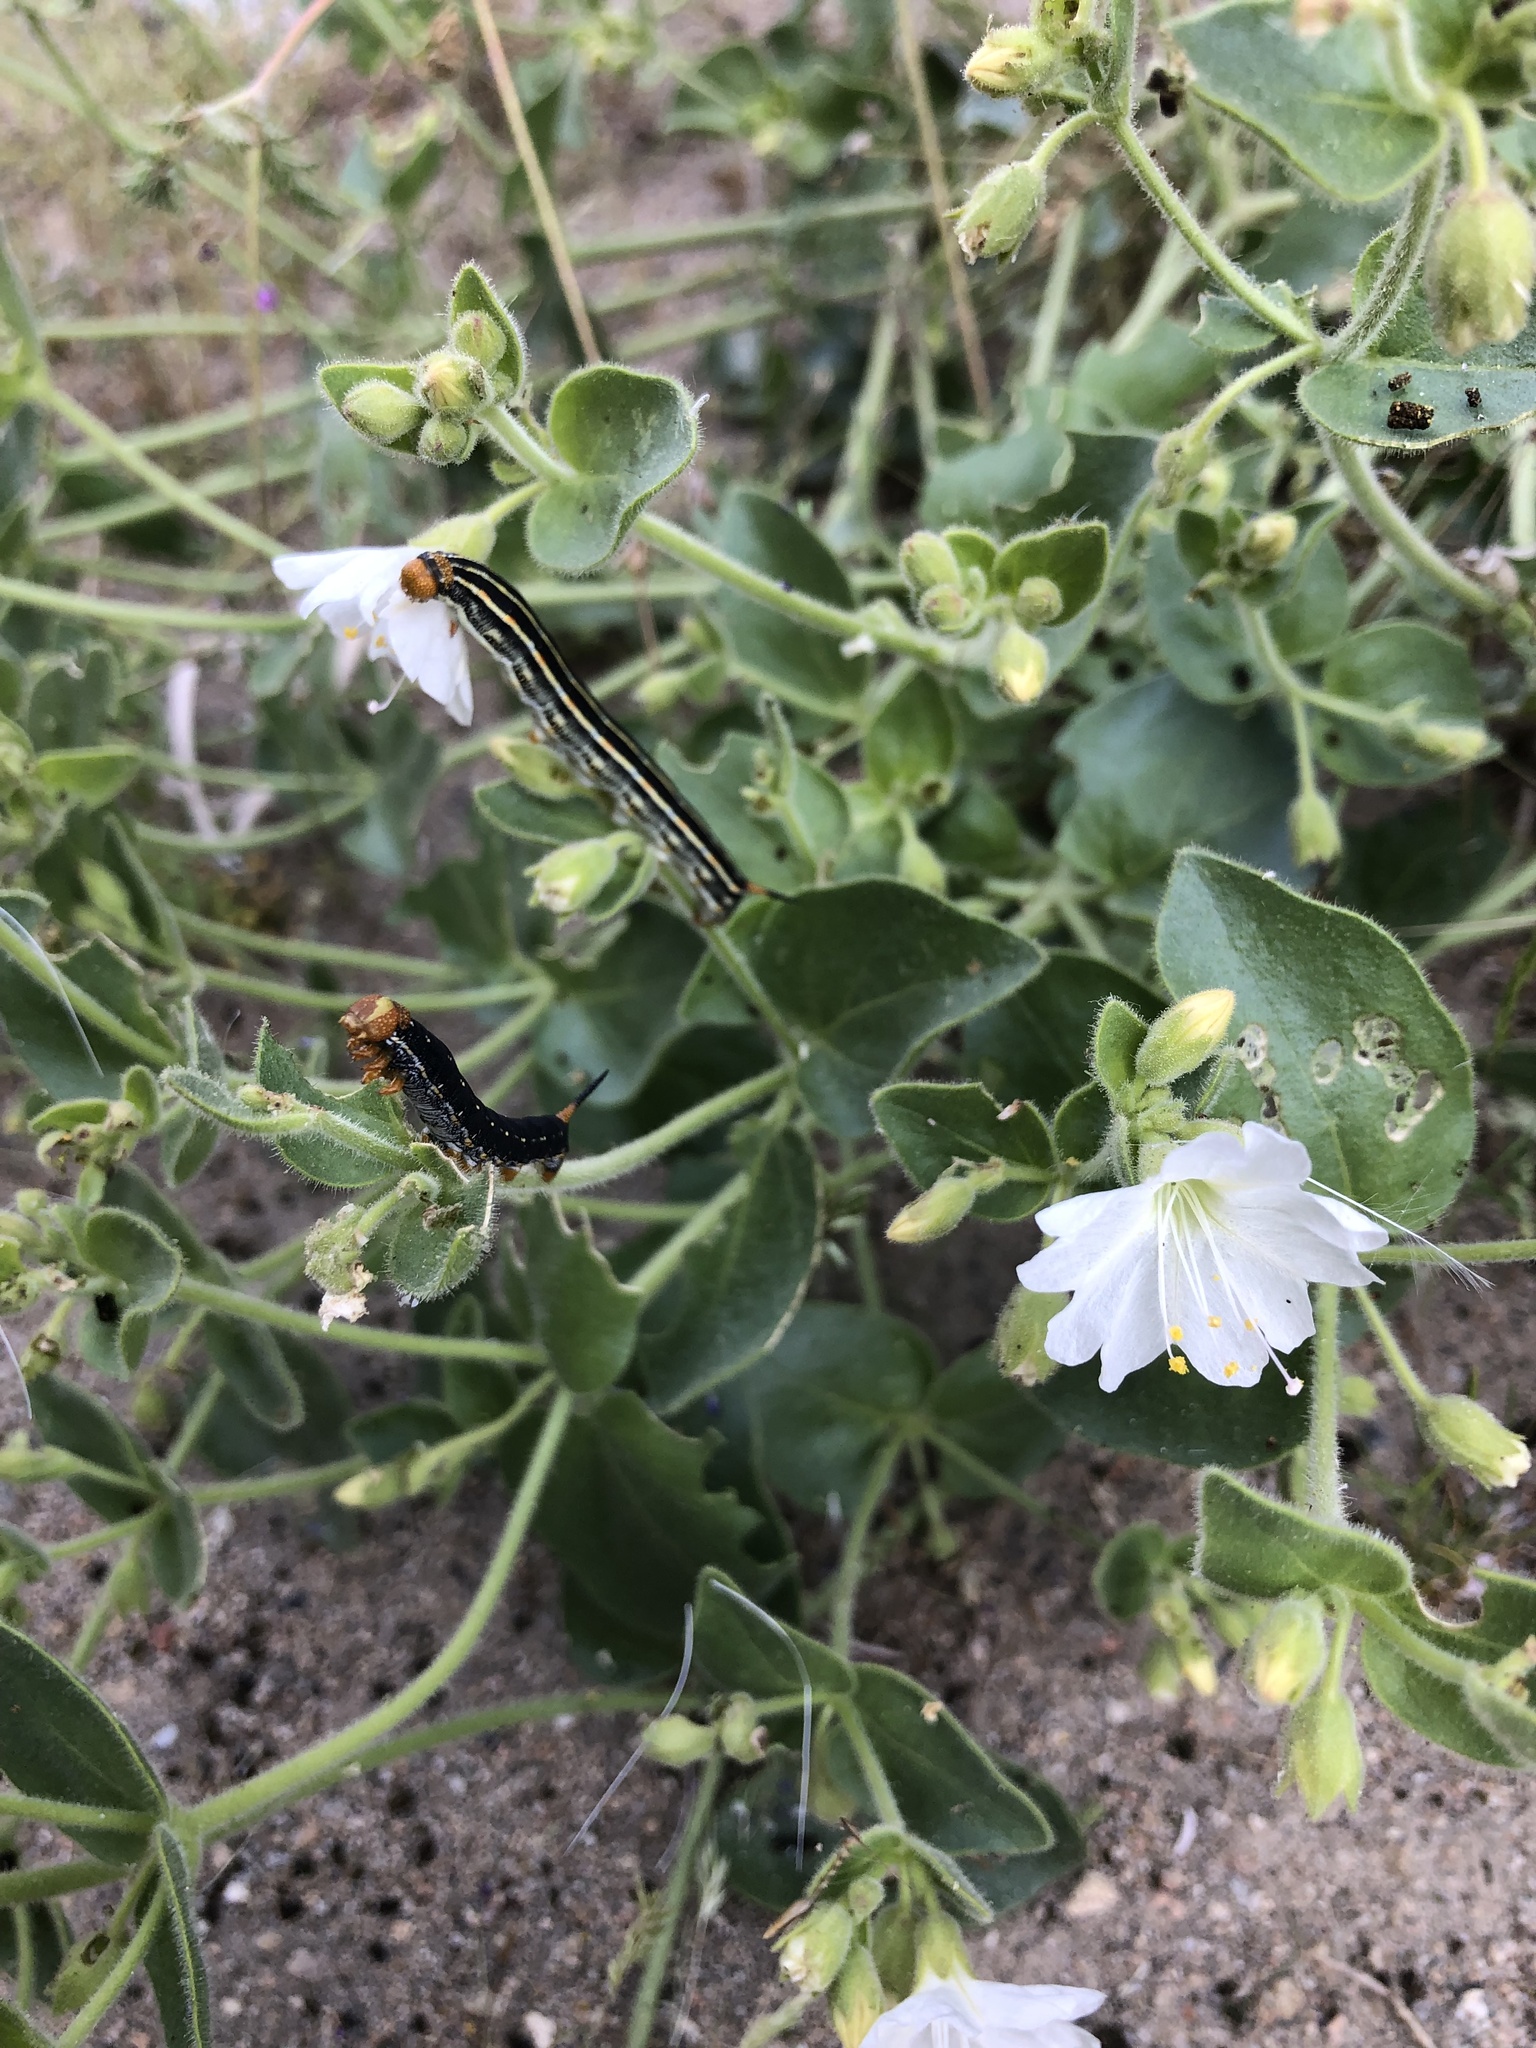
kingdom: Animalia
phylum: Arthropoda
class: Insecta
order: Lepidoptera
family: Sphingidae
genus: Hyles
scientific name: Hyles lineata
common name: White-lined sphinx
